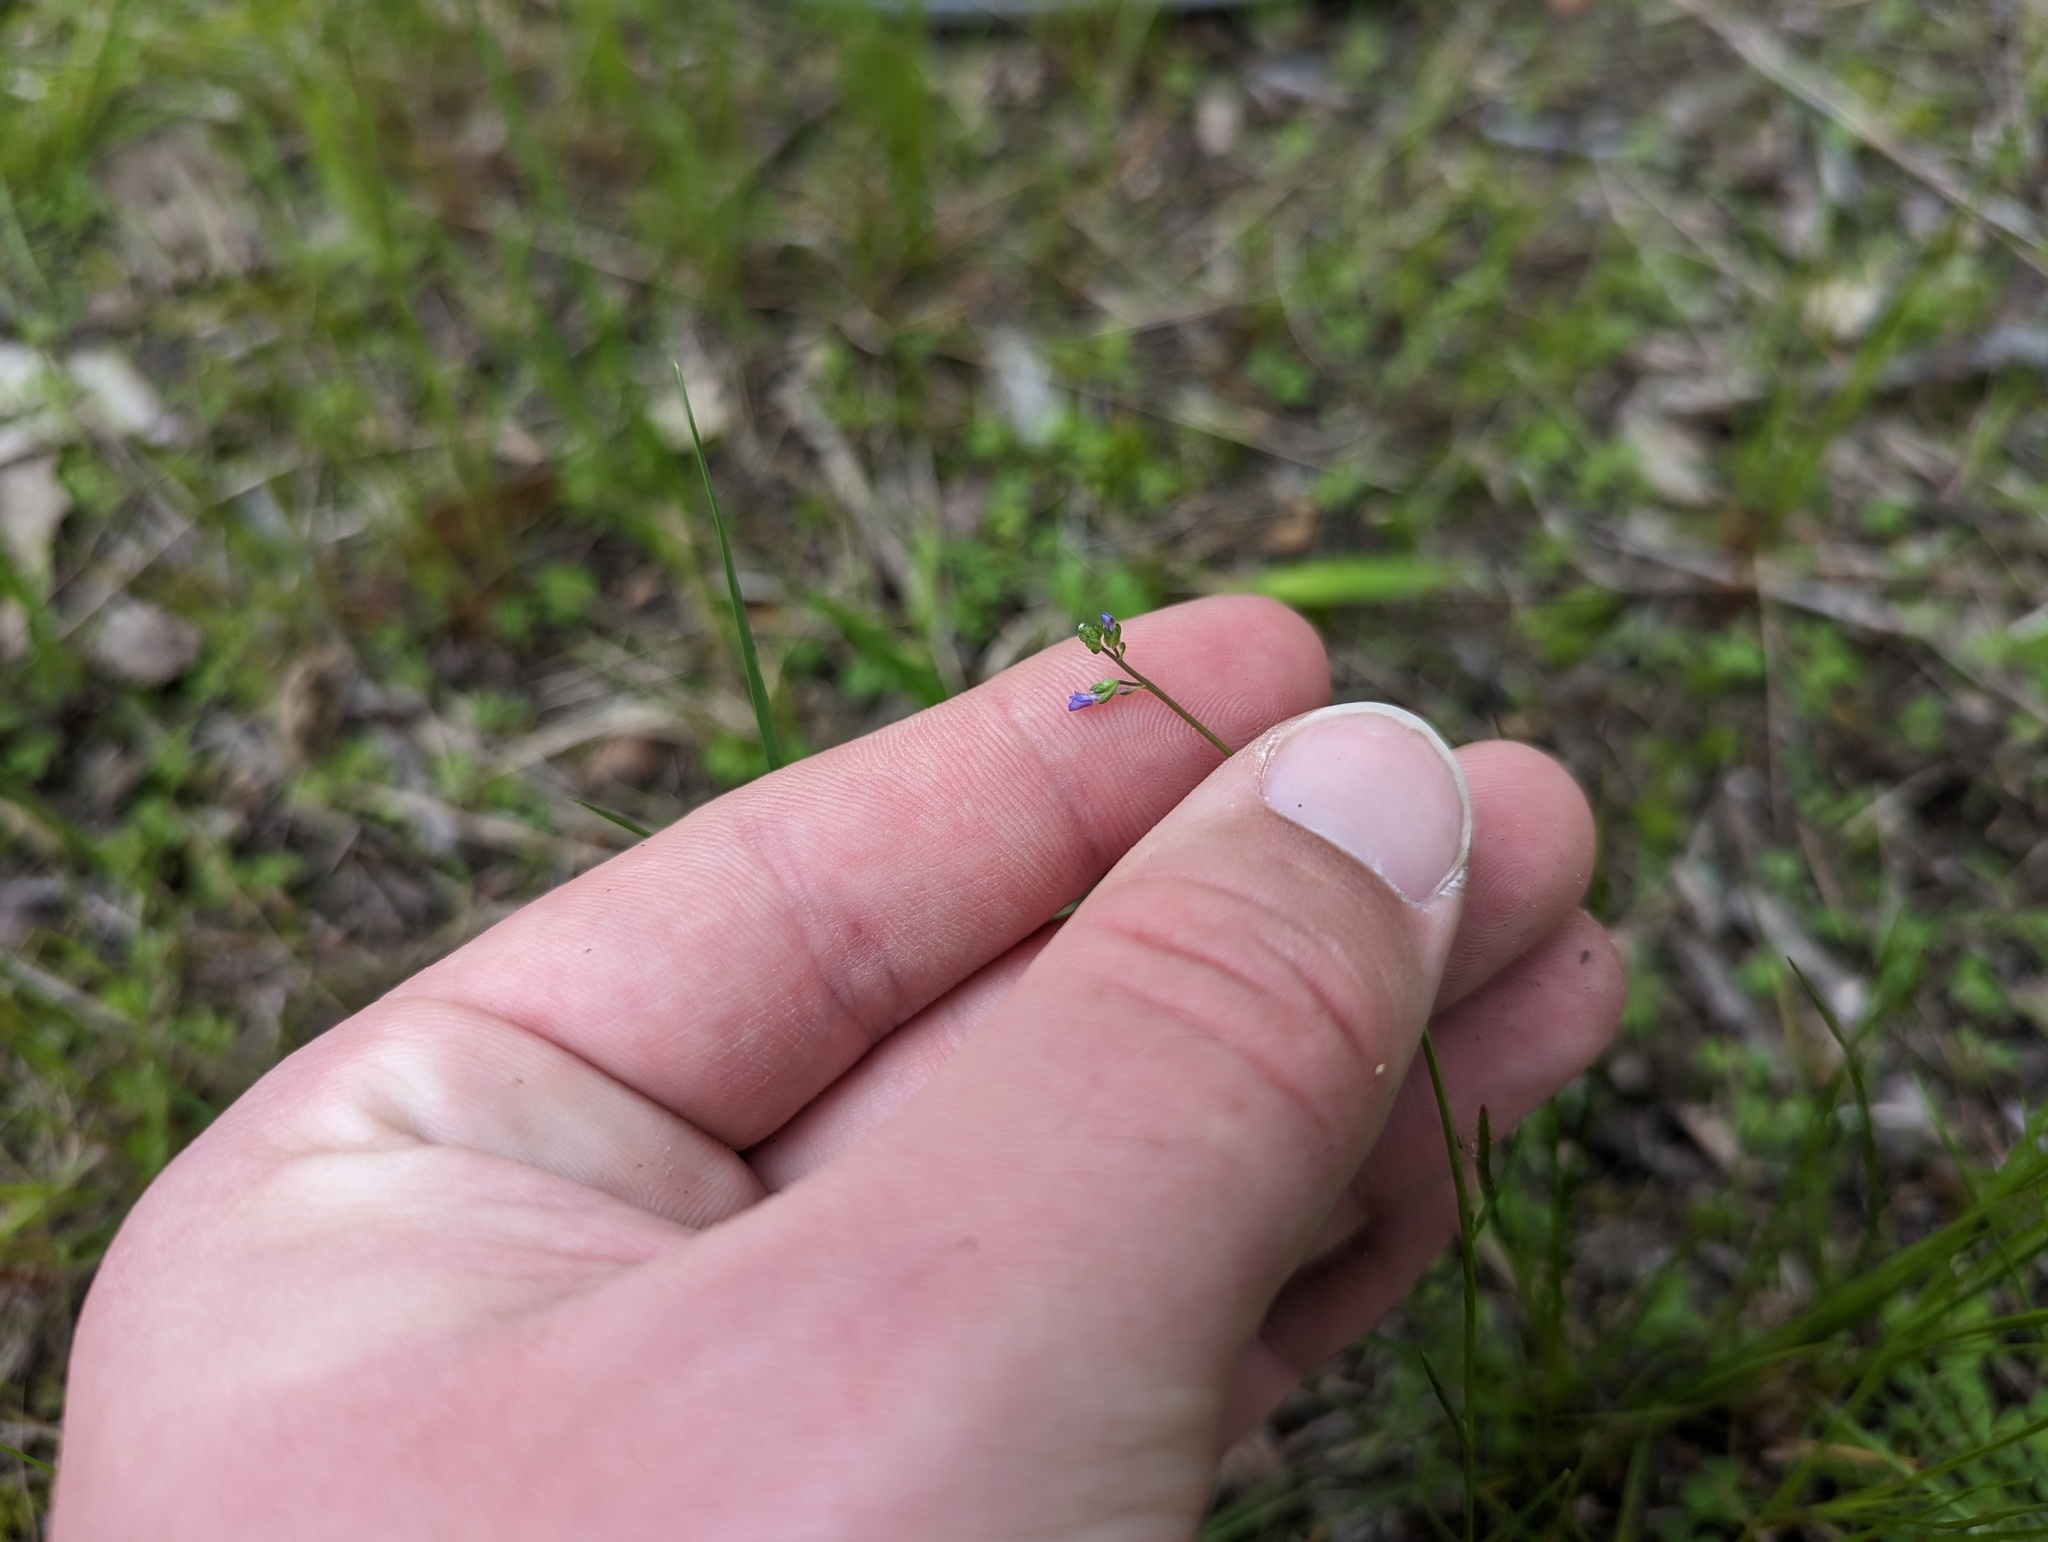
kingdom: Plantae
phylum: Tracheophyta
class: Magnoliopsida
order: Lamiales
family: Plantaginaceae
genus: Nuttallanthus
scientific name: Nuttallanthus canadensis
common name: Blue toadflax
